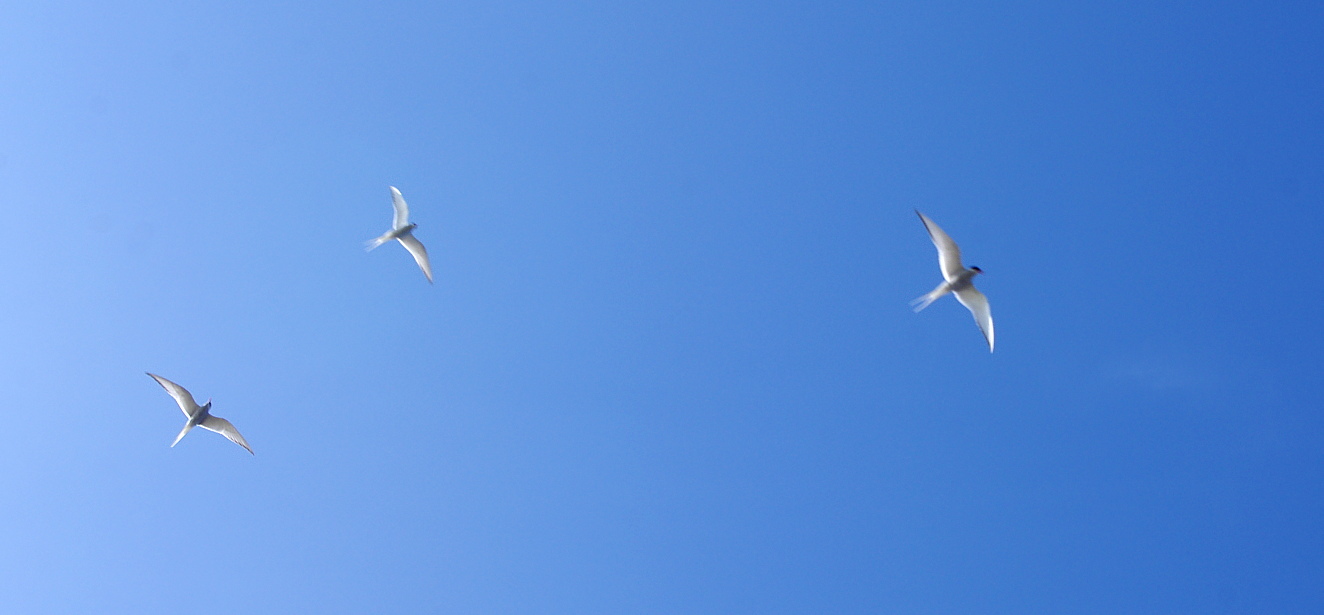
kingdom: Animalia
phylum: Chordata
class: Aves
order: Charadriiformes
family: Laridae
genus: Sterna
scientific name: Sterna paradisaea
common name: Arctic tern
